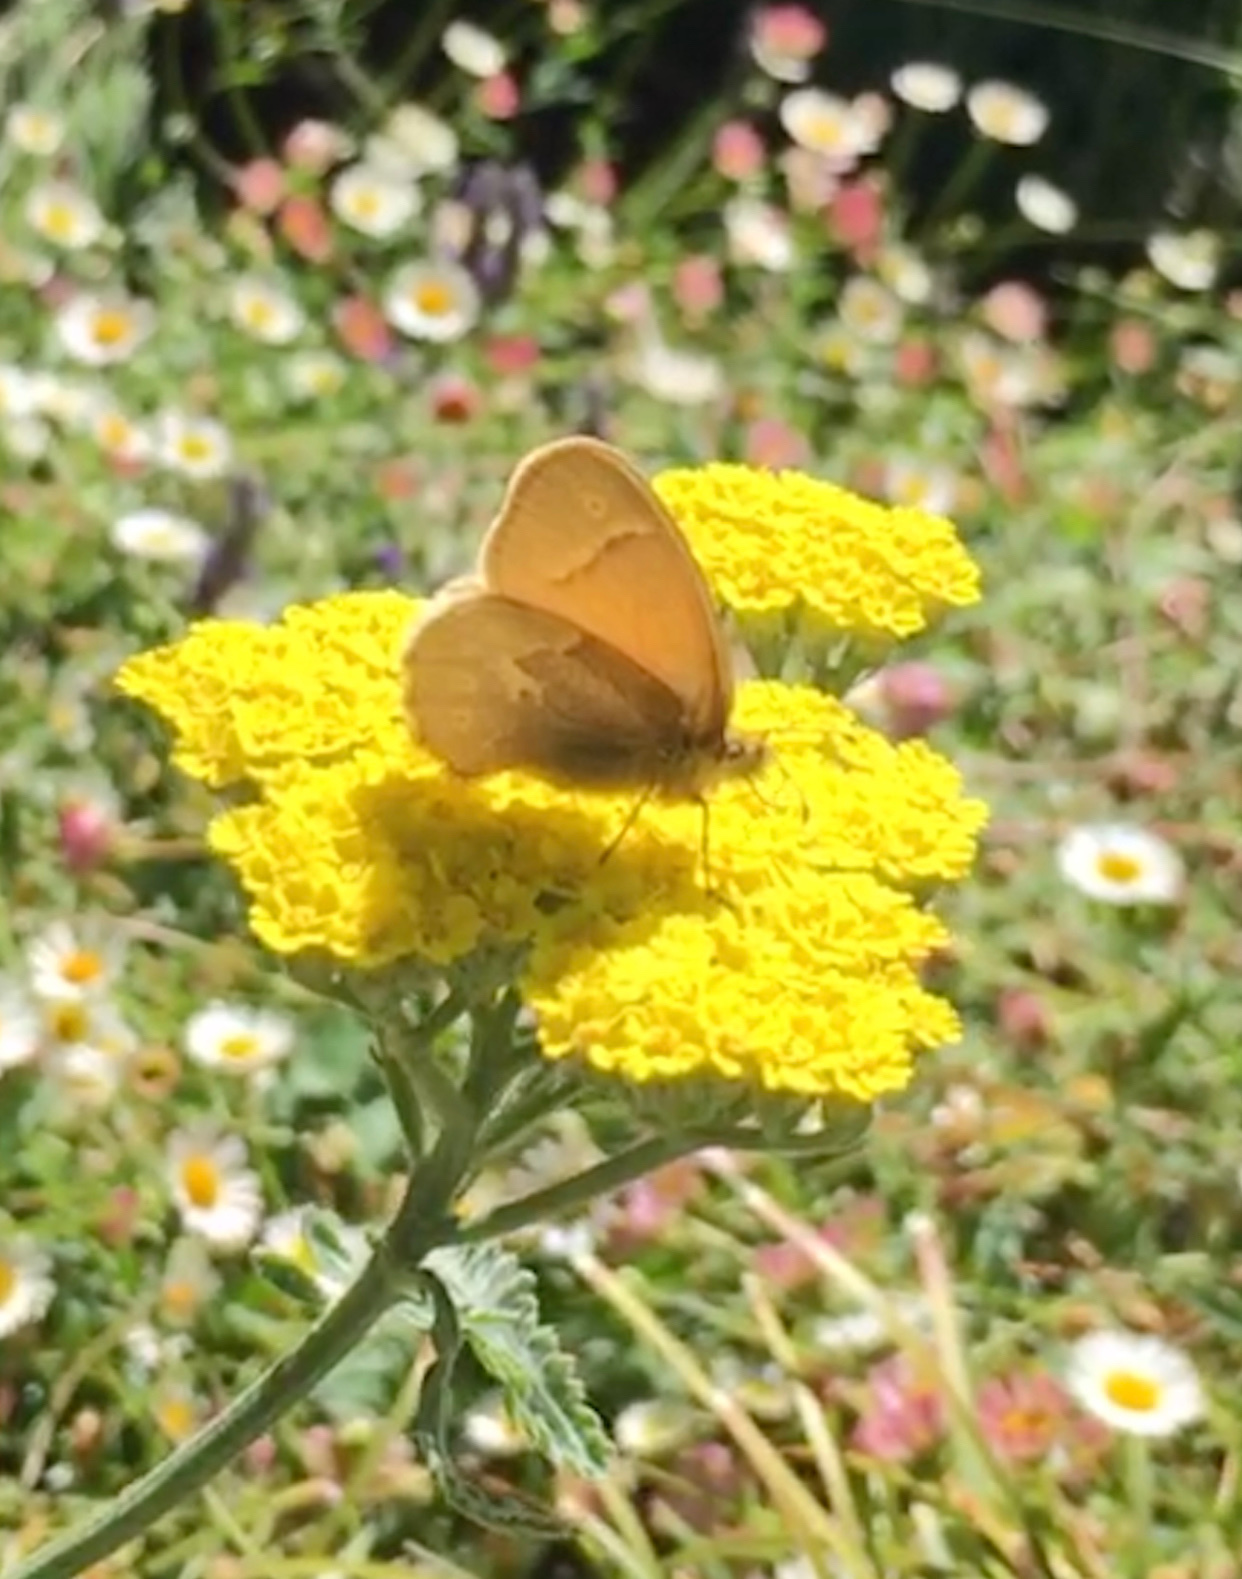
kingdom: Animalia
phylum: Arthropoda
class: Insecta
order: Lepidoptera
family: Nymphalidae
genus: Coenonympha
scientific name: Coenonympha california
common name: Common ringlet
